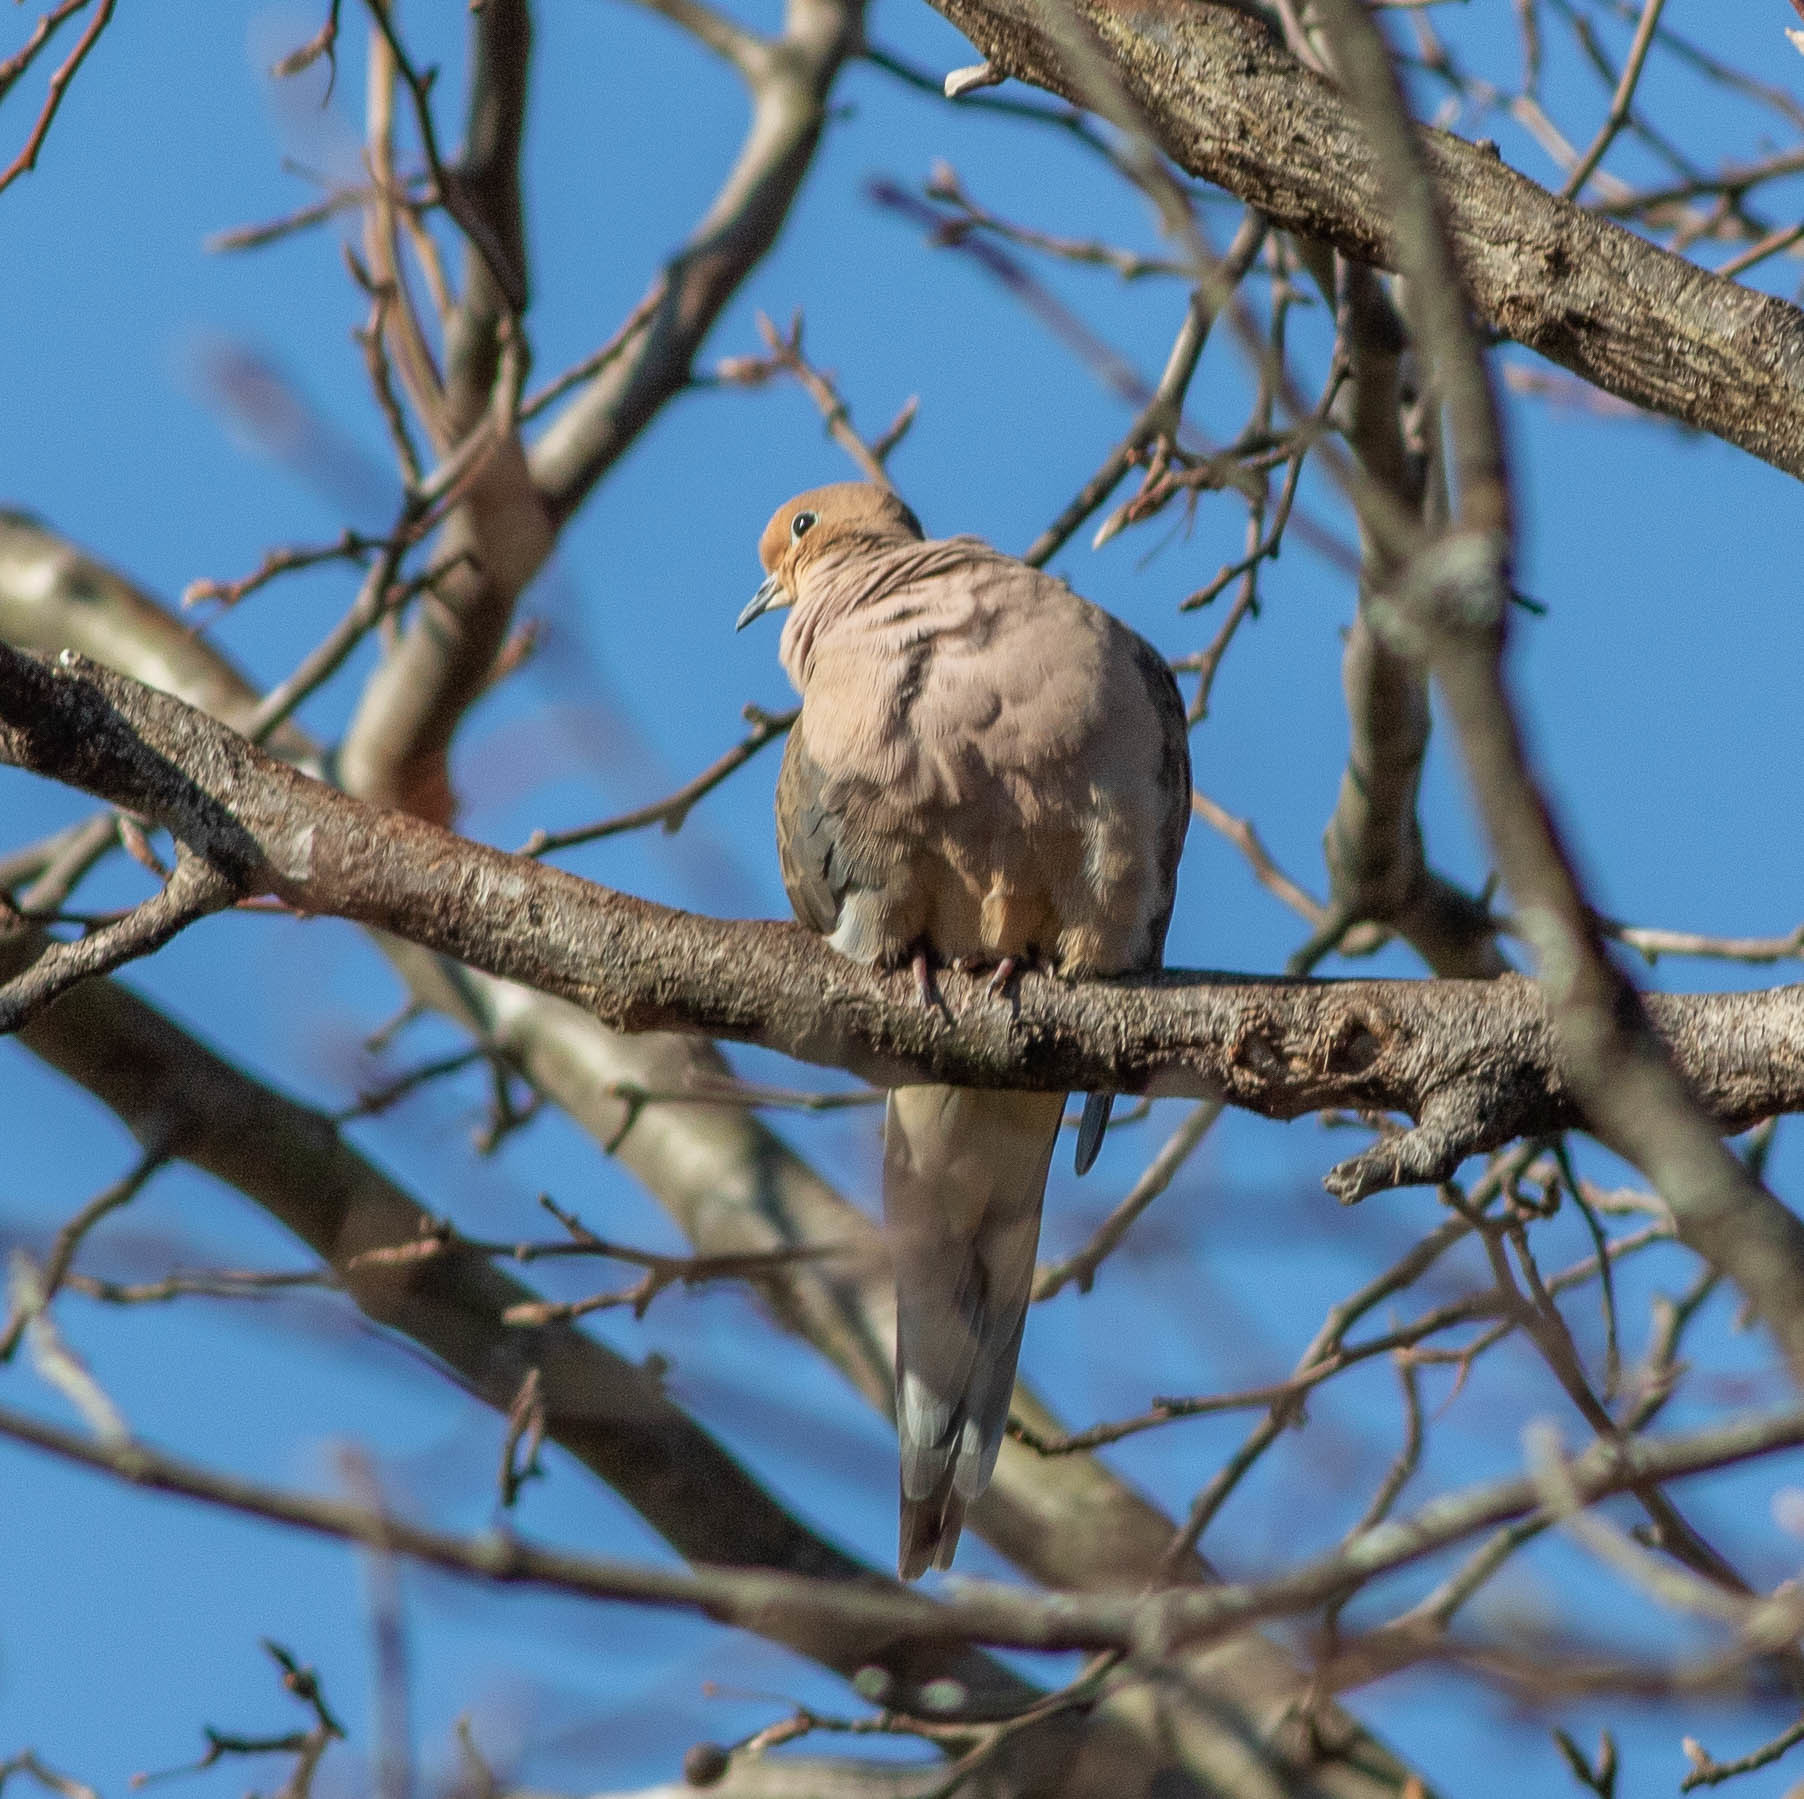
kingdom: Animalia
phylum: Chordata
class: Aves
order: Columbiformes
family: Columbidae
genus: Zenaida
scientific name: Zenaida macroura
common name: Mourning dove
